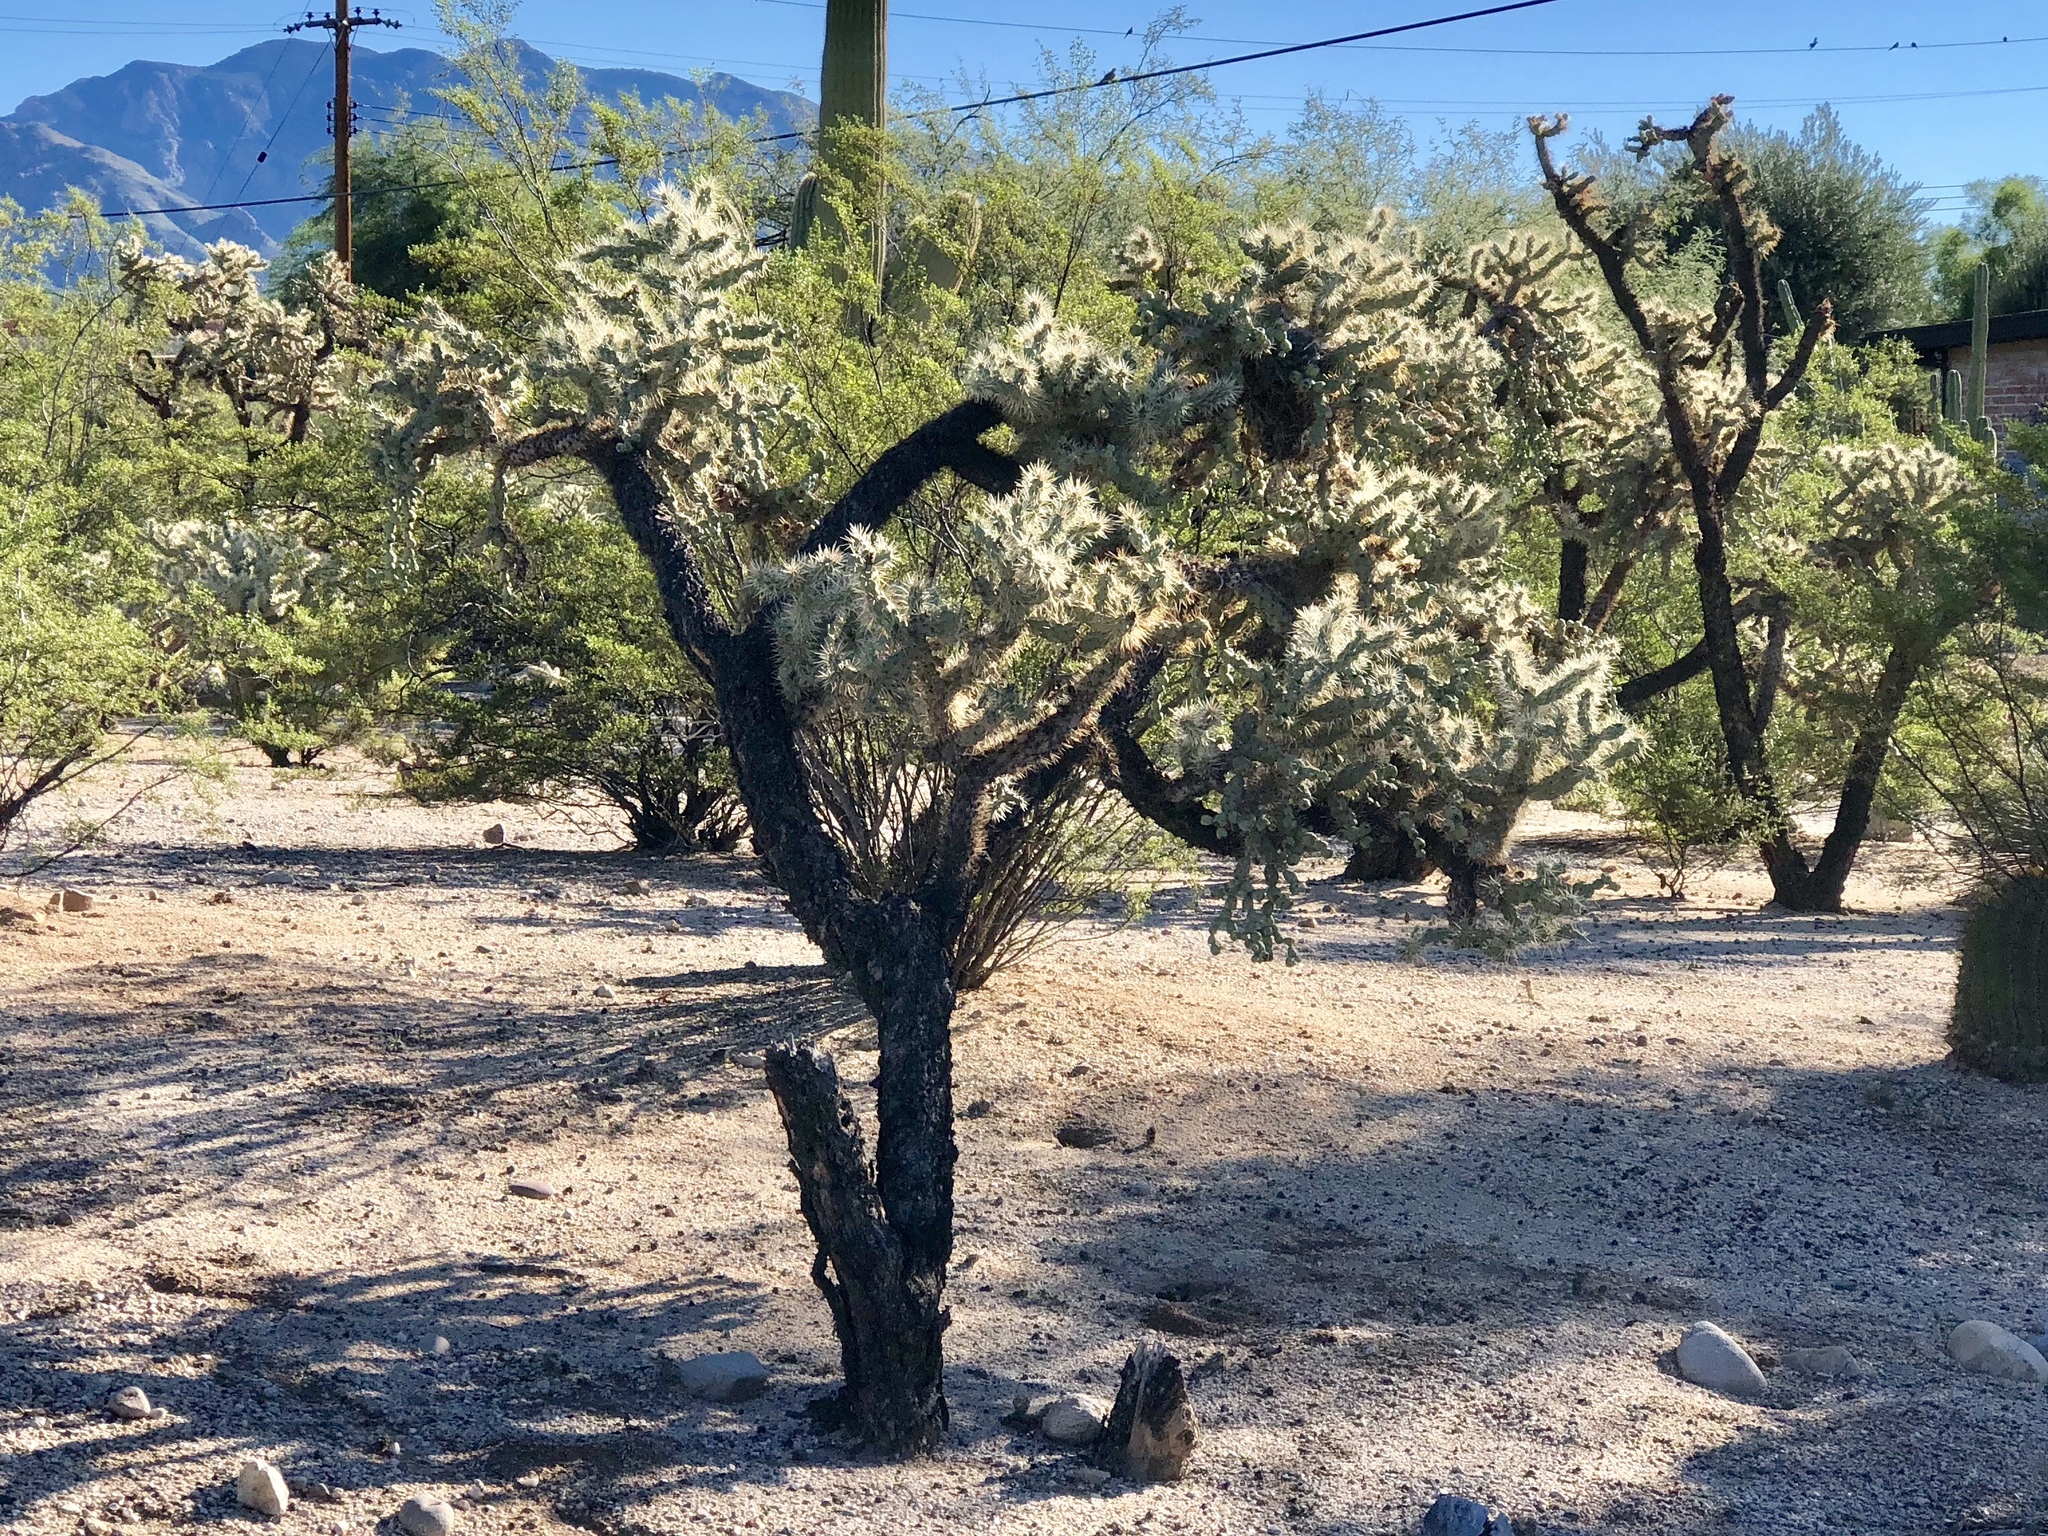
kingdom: Plantae
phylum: Tracheophyta
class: Magnoliopsida
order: Caryophyllales
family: Cactaceae
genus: Cylindropuntia
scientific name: Cylindropuntia fulgida
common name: Jumping cholla
